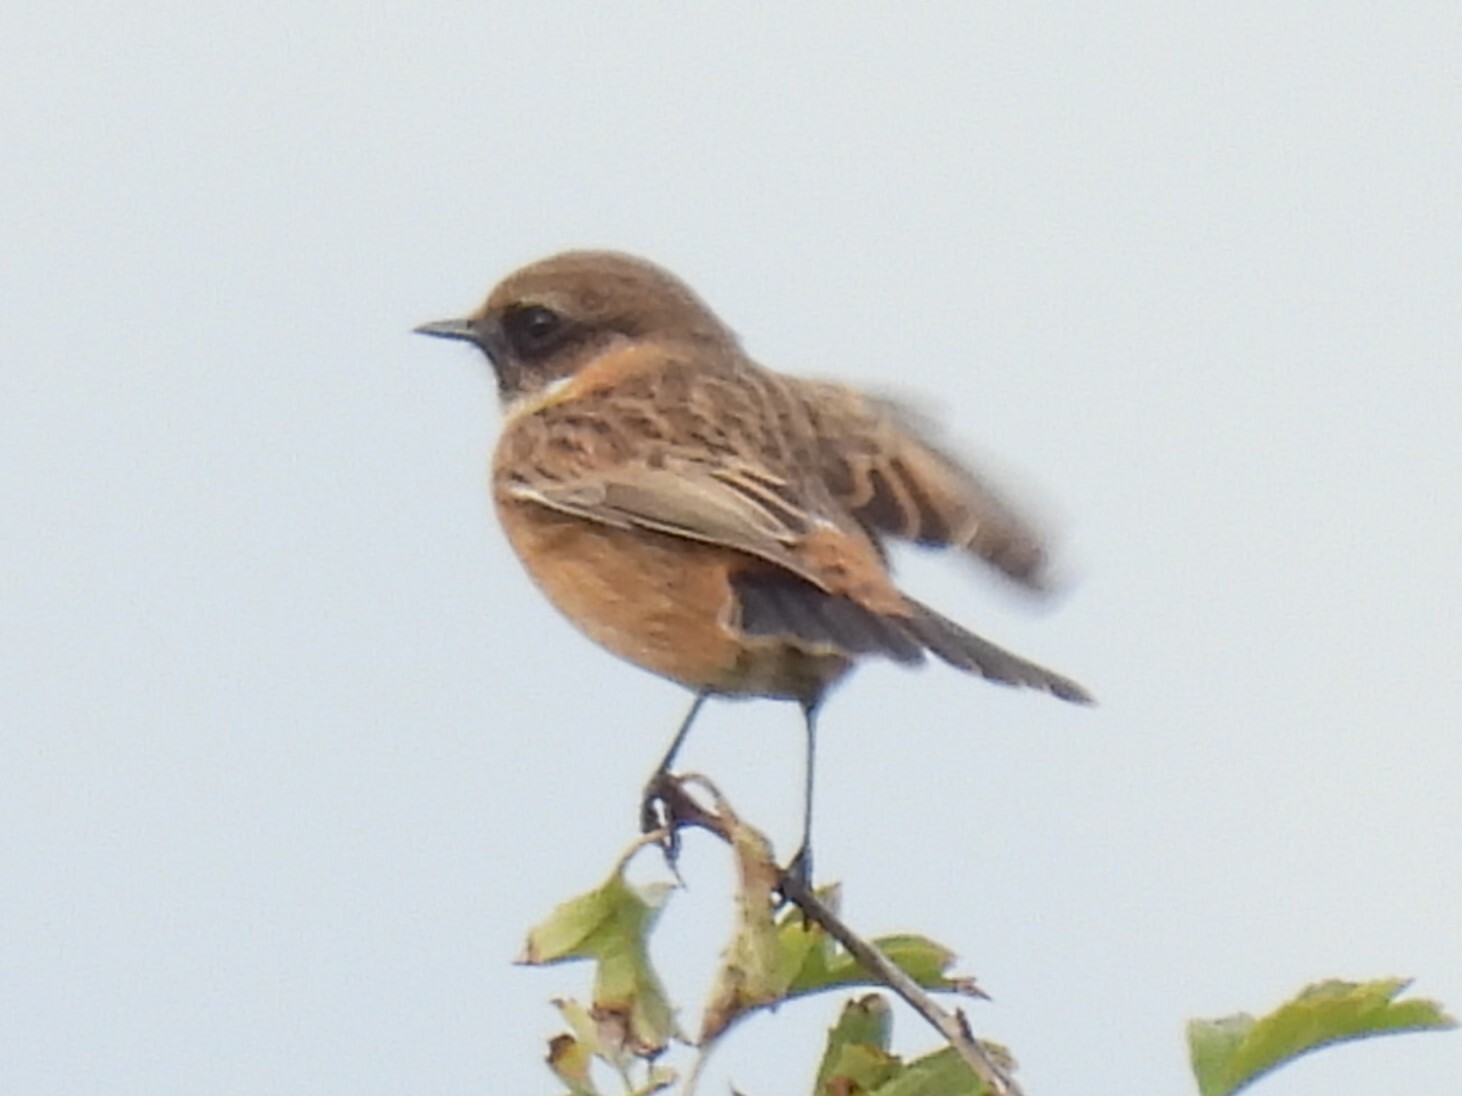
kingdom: Animalia
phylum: Chordata
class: Aves
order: Passeriformes
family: Muscicapidae
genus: Saxicola
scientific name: Saxicola rubicola
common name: European stonechat
